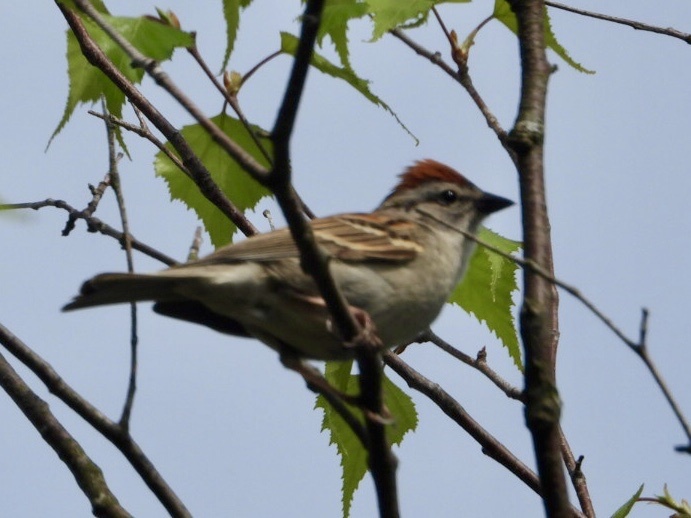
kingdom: Animalia
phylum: Chordata
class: Aves
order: Passeriformes
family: Passerellidae
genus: Spizella
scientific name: Spizella passerina
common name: Chipping sparrow
